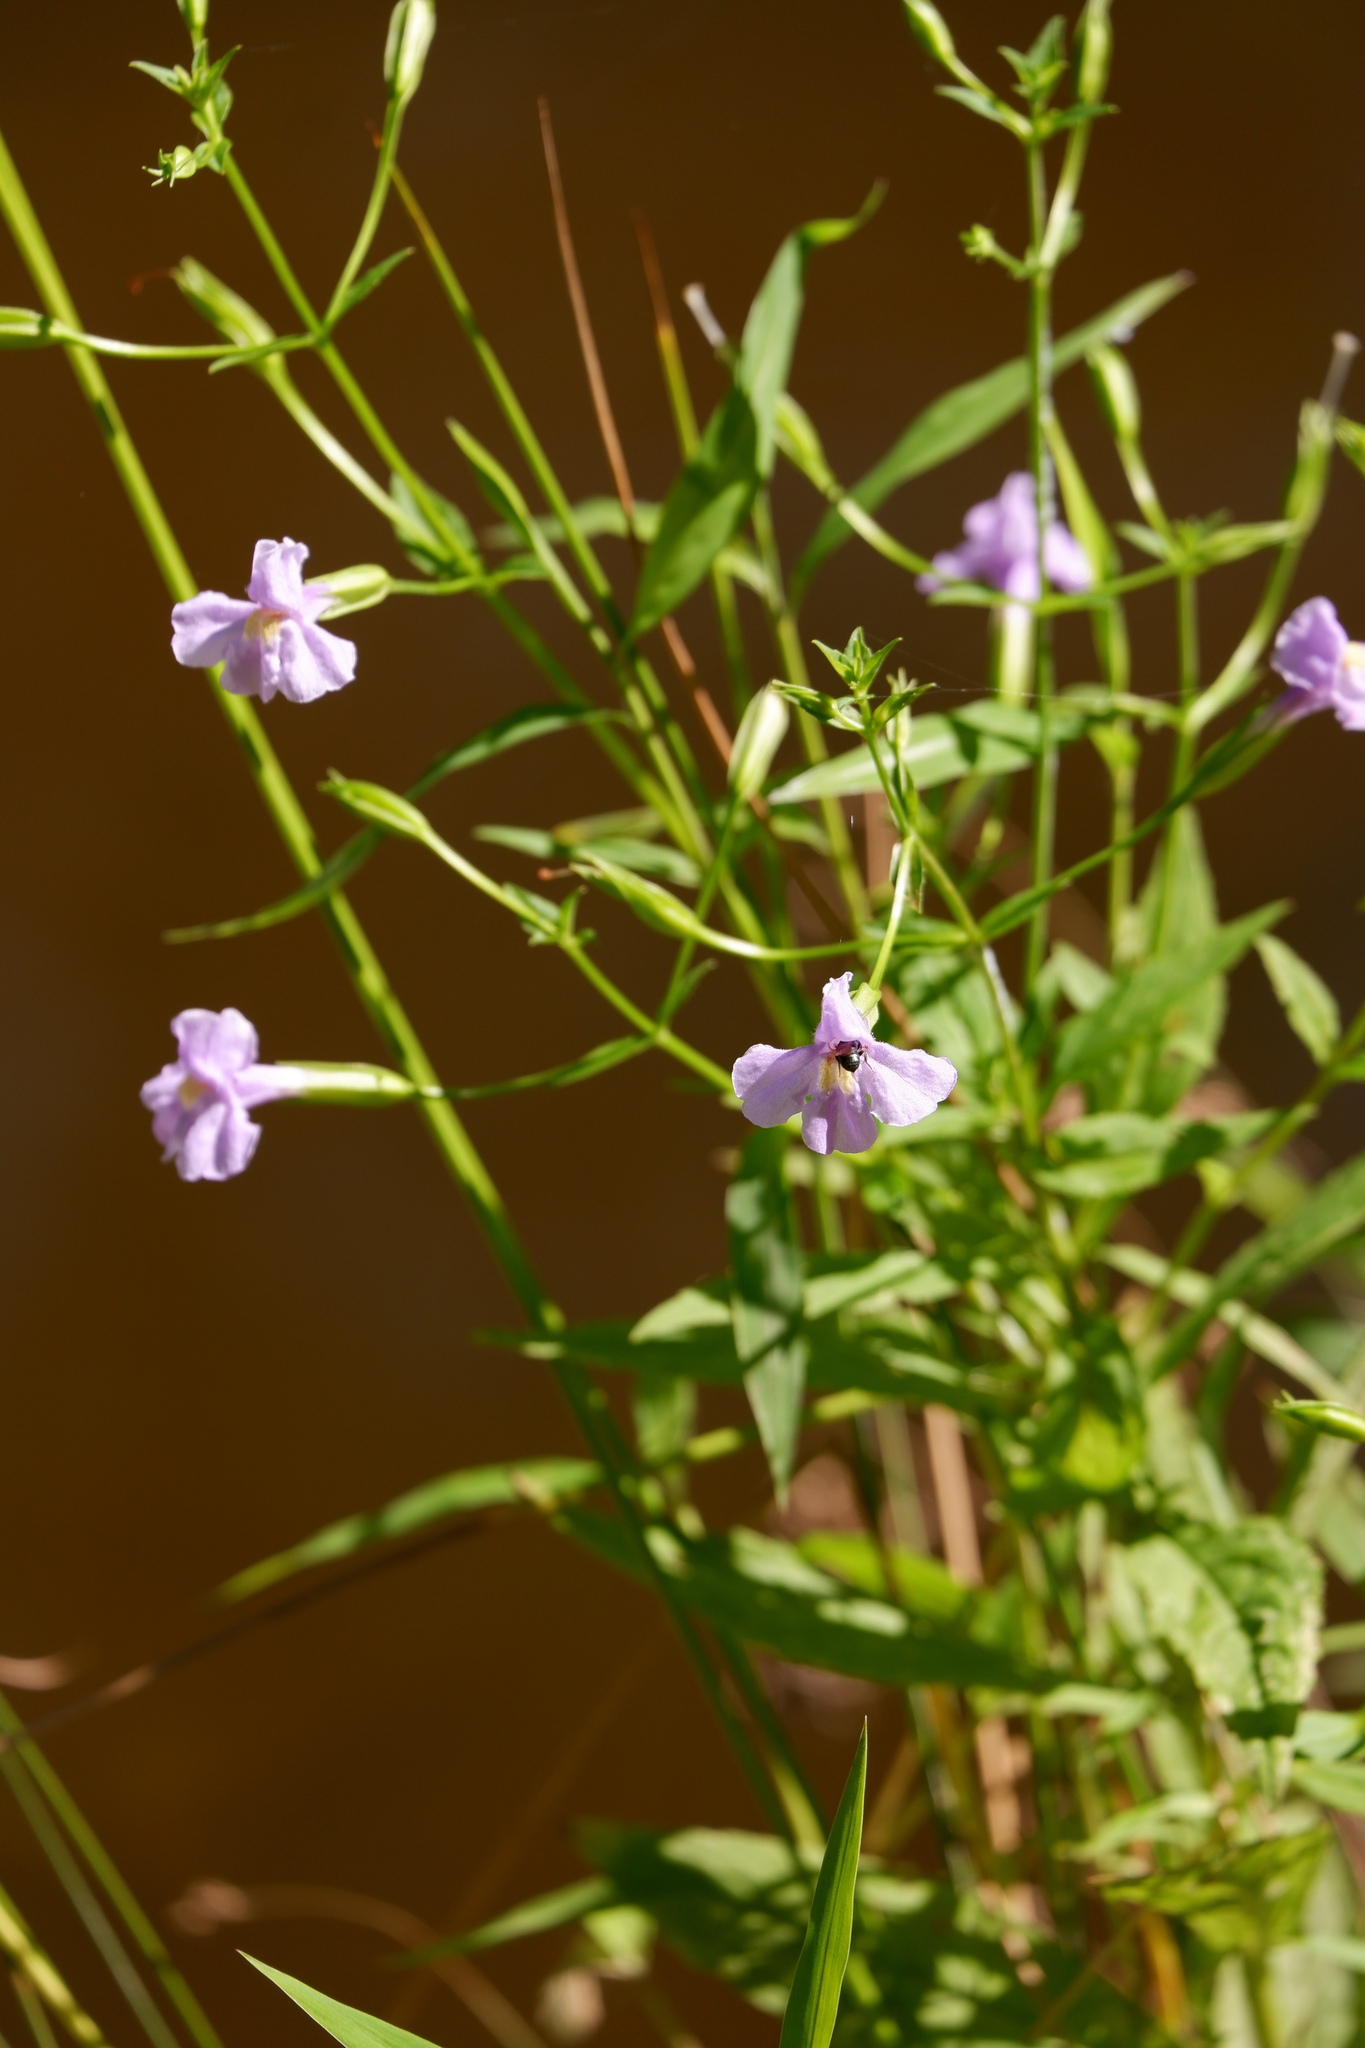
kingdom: Plantae
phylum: Tracheophyta
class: Magnoliopsida
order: Lamiales
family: Phrymaceae
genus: Mimulus
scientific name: Mimulus ringens
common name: Allegheny monkeyflower
